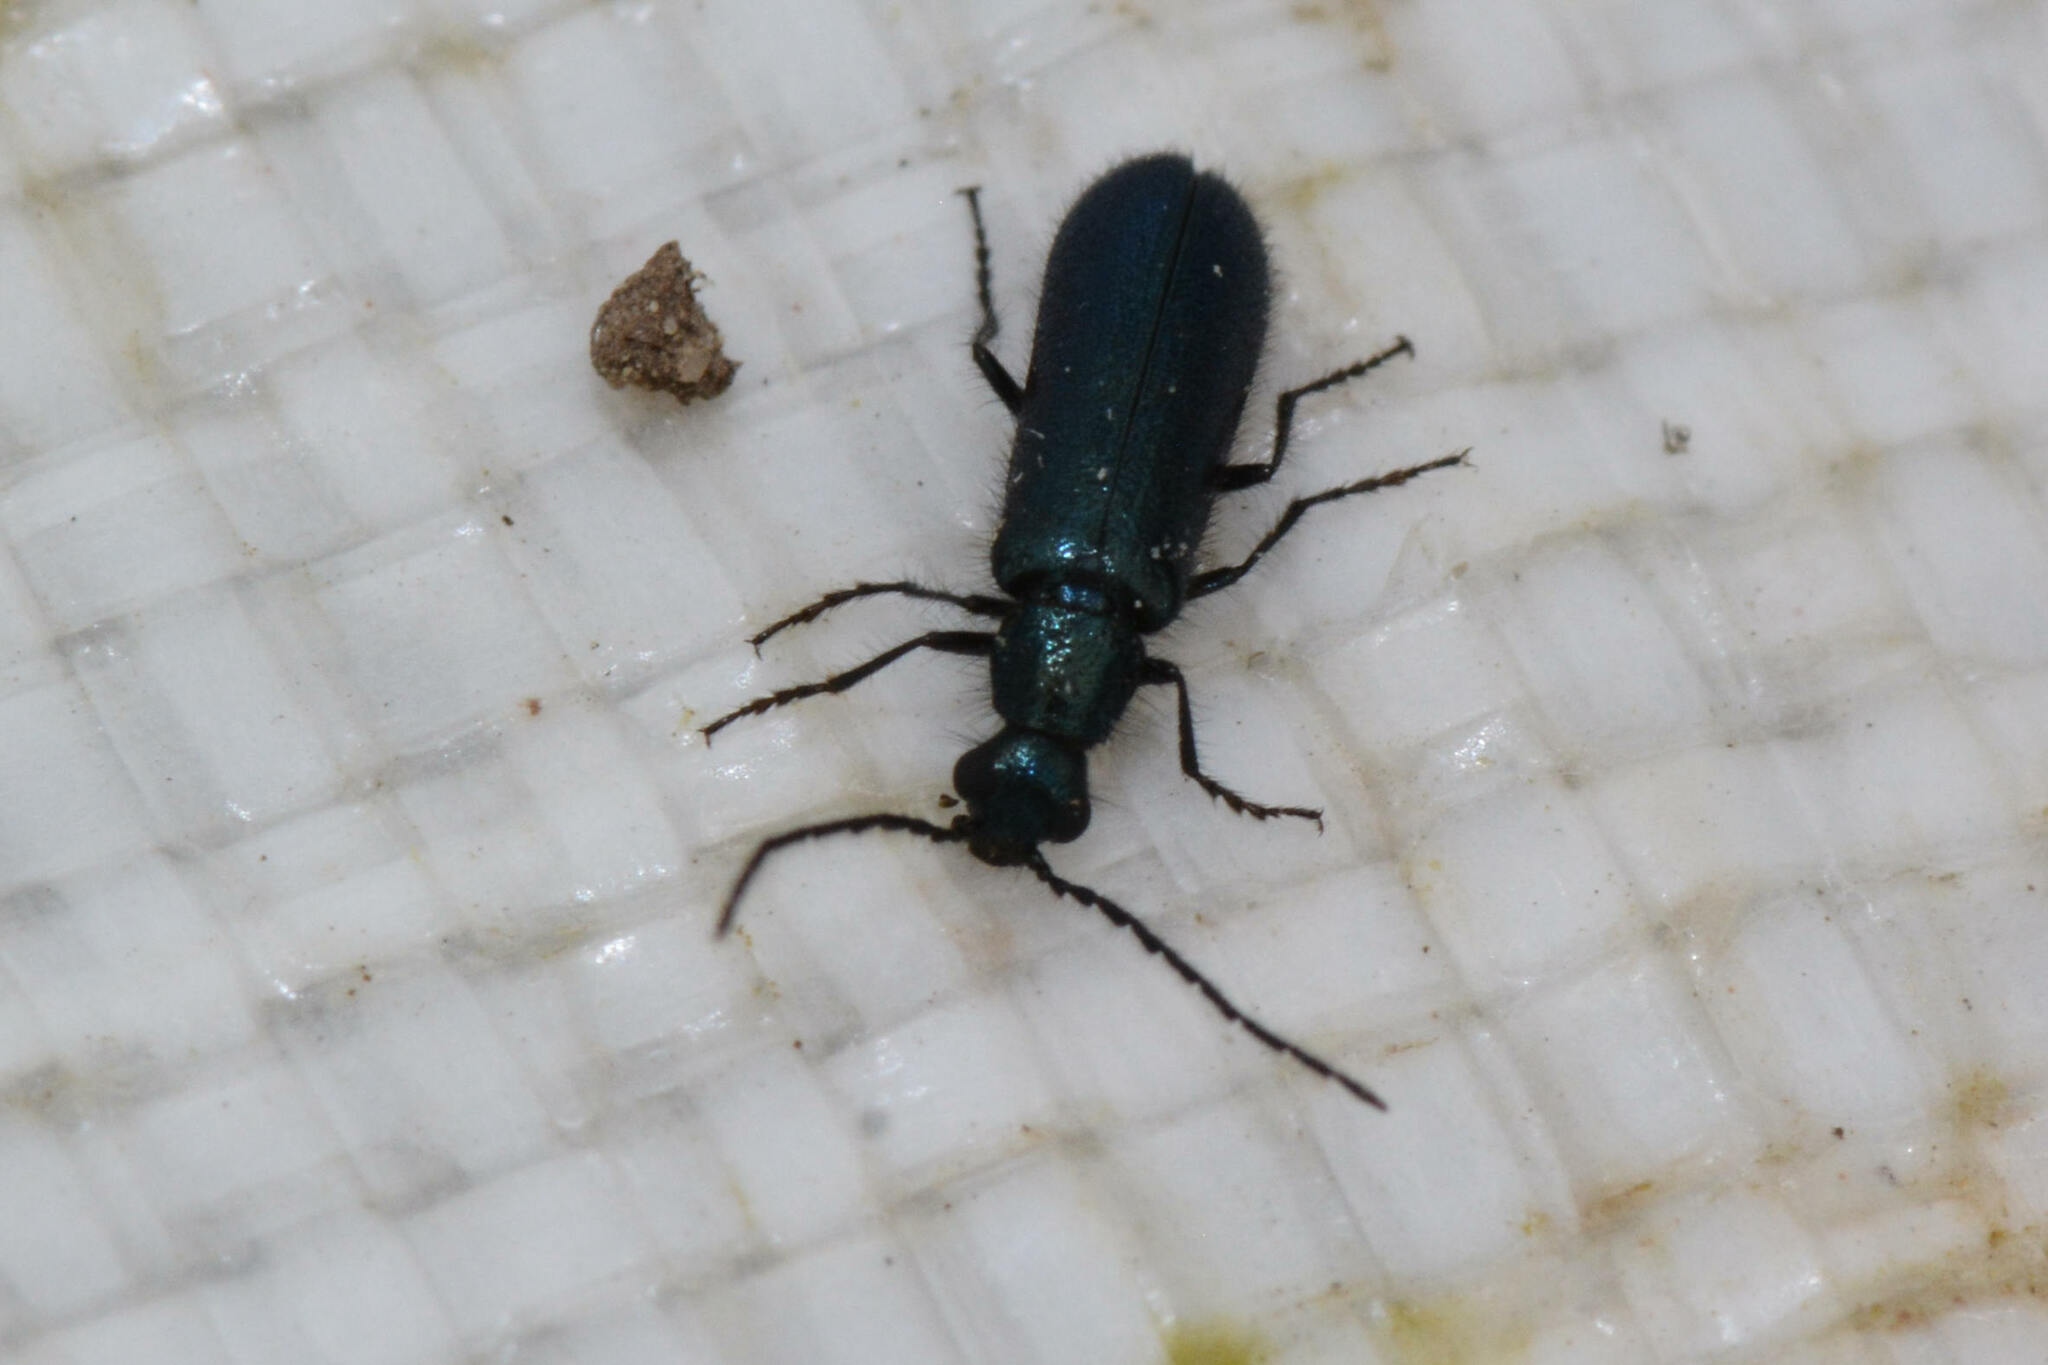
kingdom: Animalia
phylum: Arthropoda
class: Insecta
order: Coleoptera
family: Melyridae
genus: Dasytes
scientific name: Dasytes caeruleus
